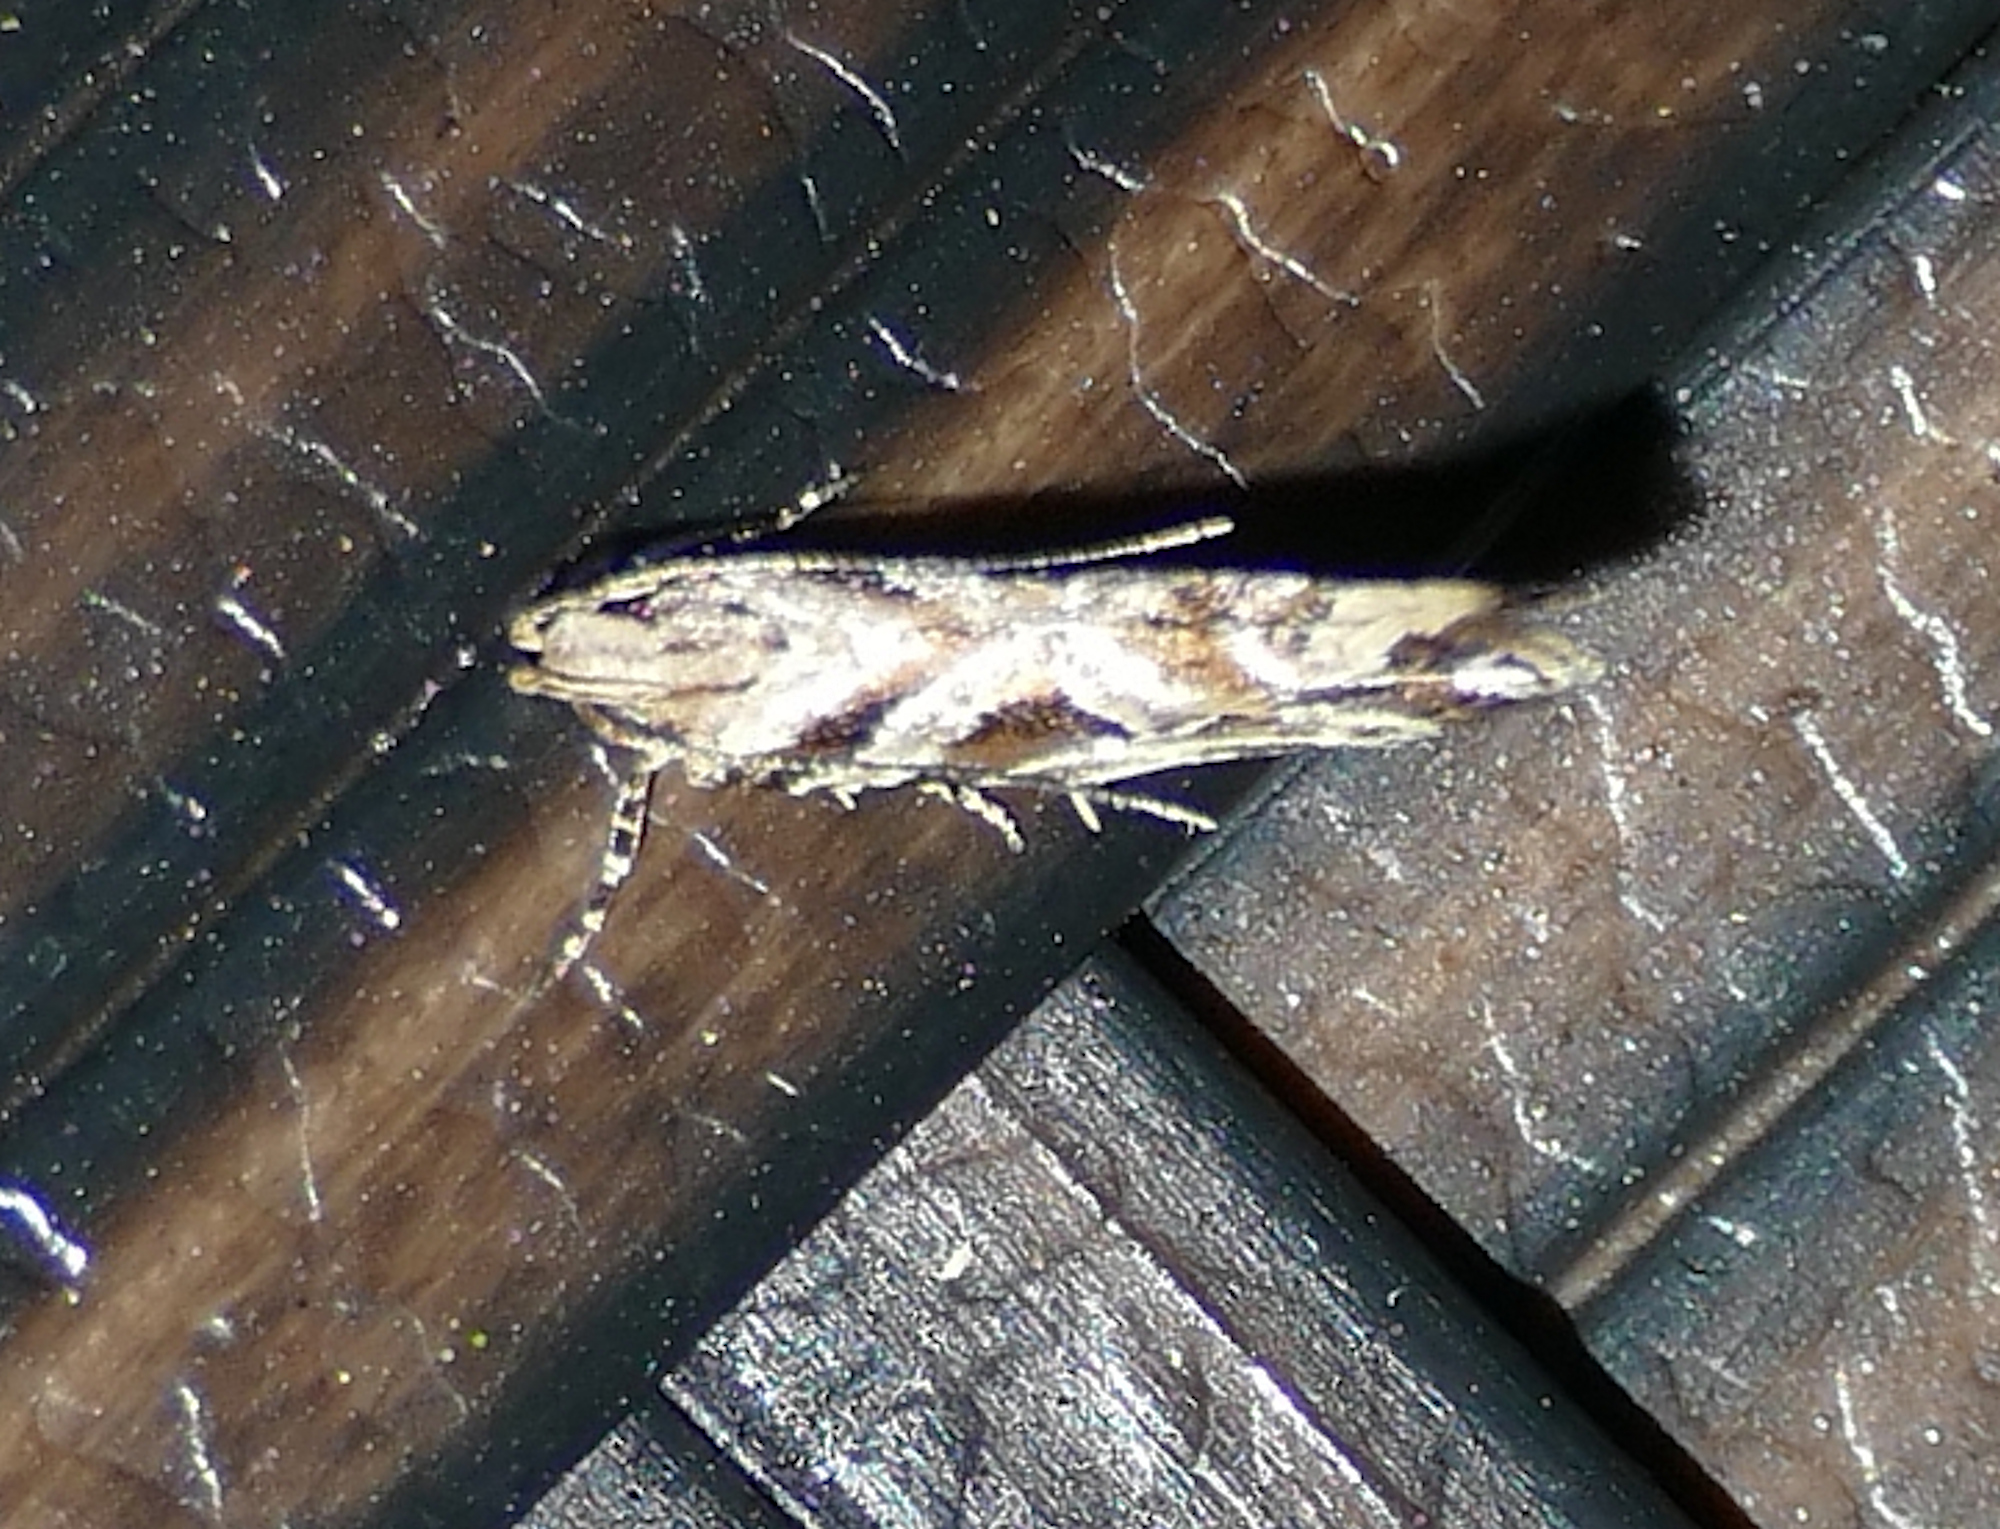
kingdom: Animalia
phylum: Arthropoda
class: Insecta
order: Lepidoptera
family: Gelechiidae
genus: Aristotelia
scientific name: Aristotelia ivae
